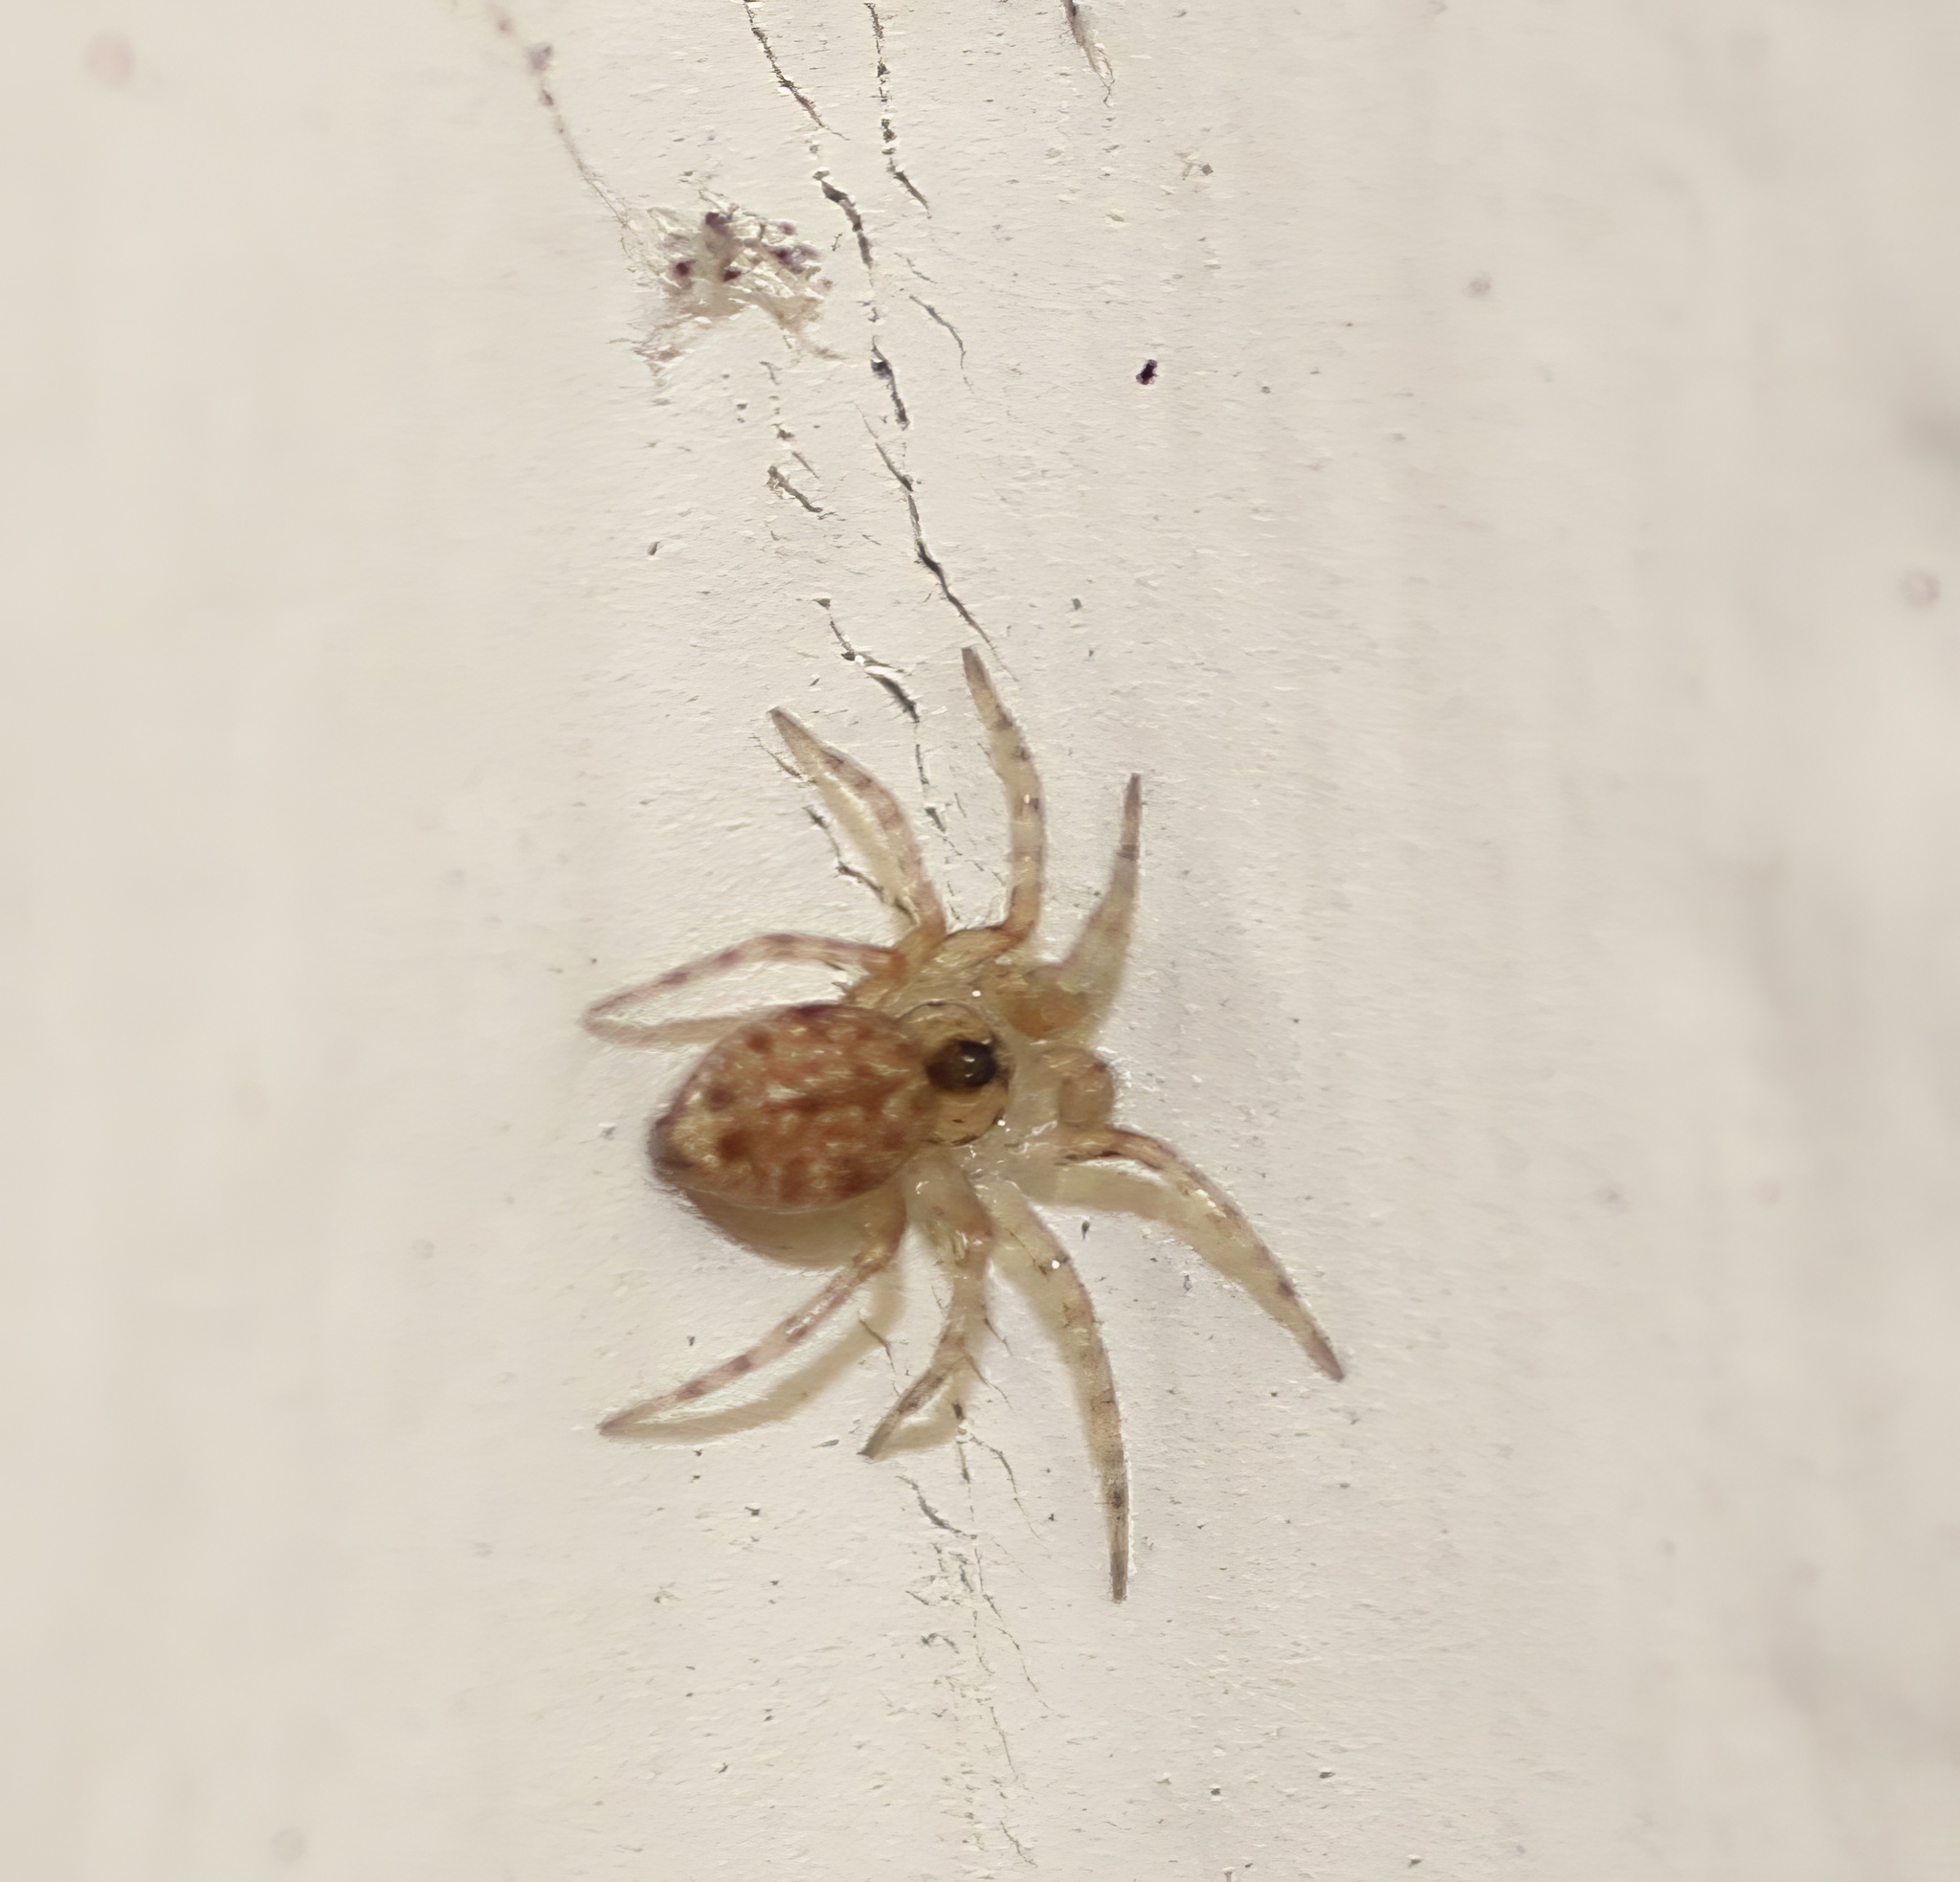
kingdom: Animalia
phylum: Arthropoda
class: Arachnida
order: Araneae
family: Oecobiidae
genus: Oecobius
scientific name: Oecobius navus
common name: Flatmesh weaver
